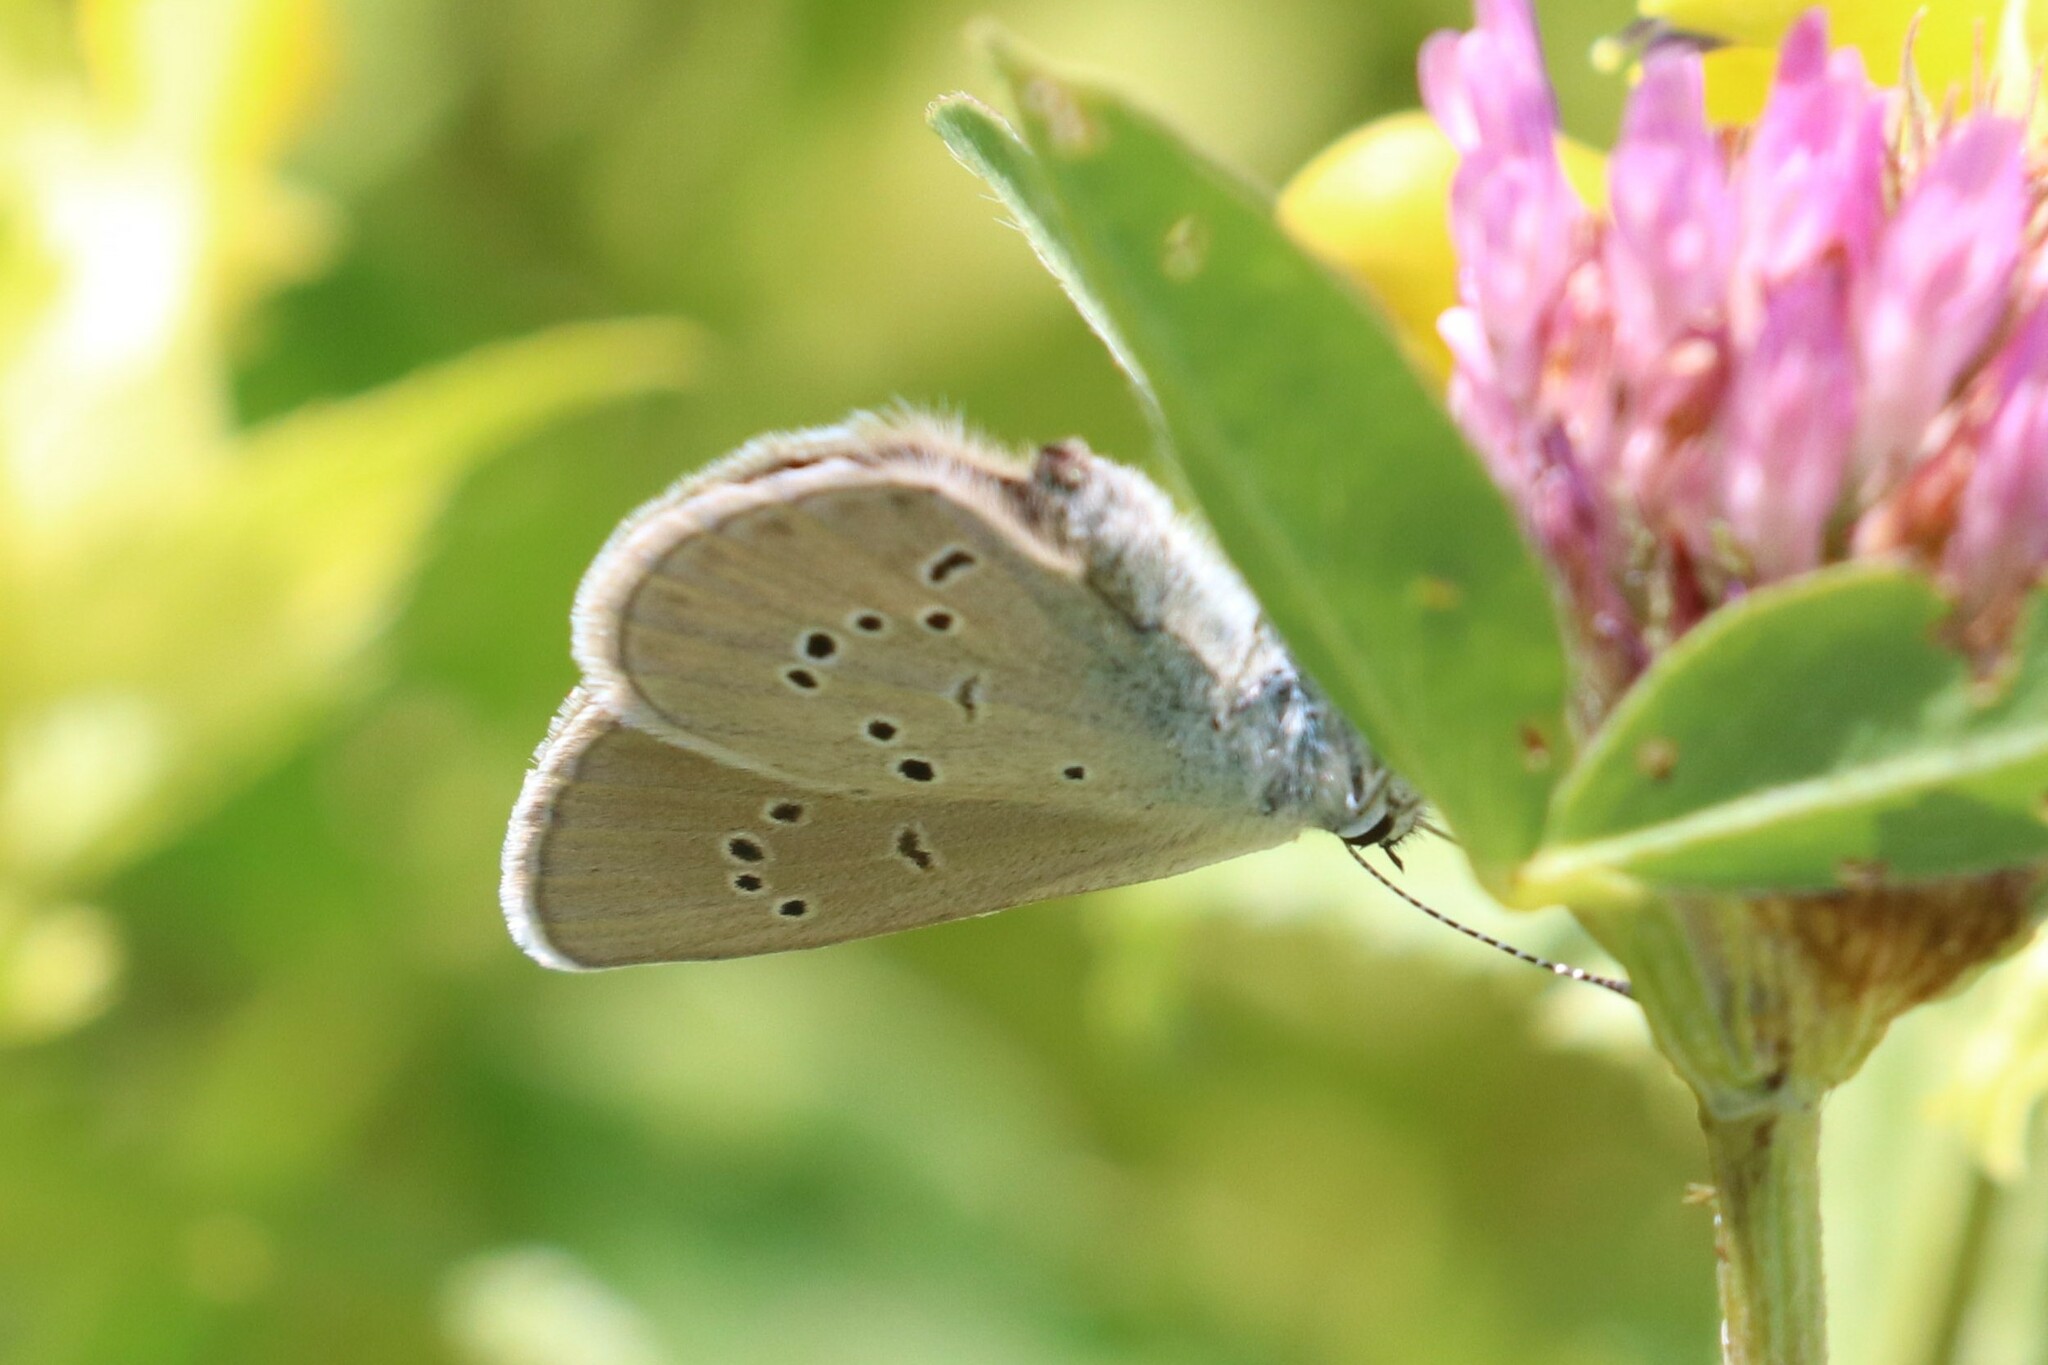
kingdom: Animalia
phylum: Arthropoda
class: Insecta
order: Lepidoptera
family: Lycaenidae
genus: Cyaniris
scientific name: Cyaniris semiargus
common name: Mazarine blue
